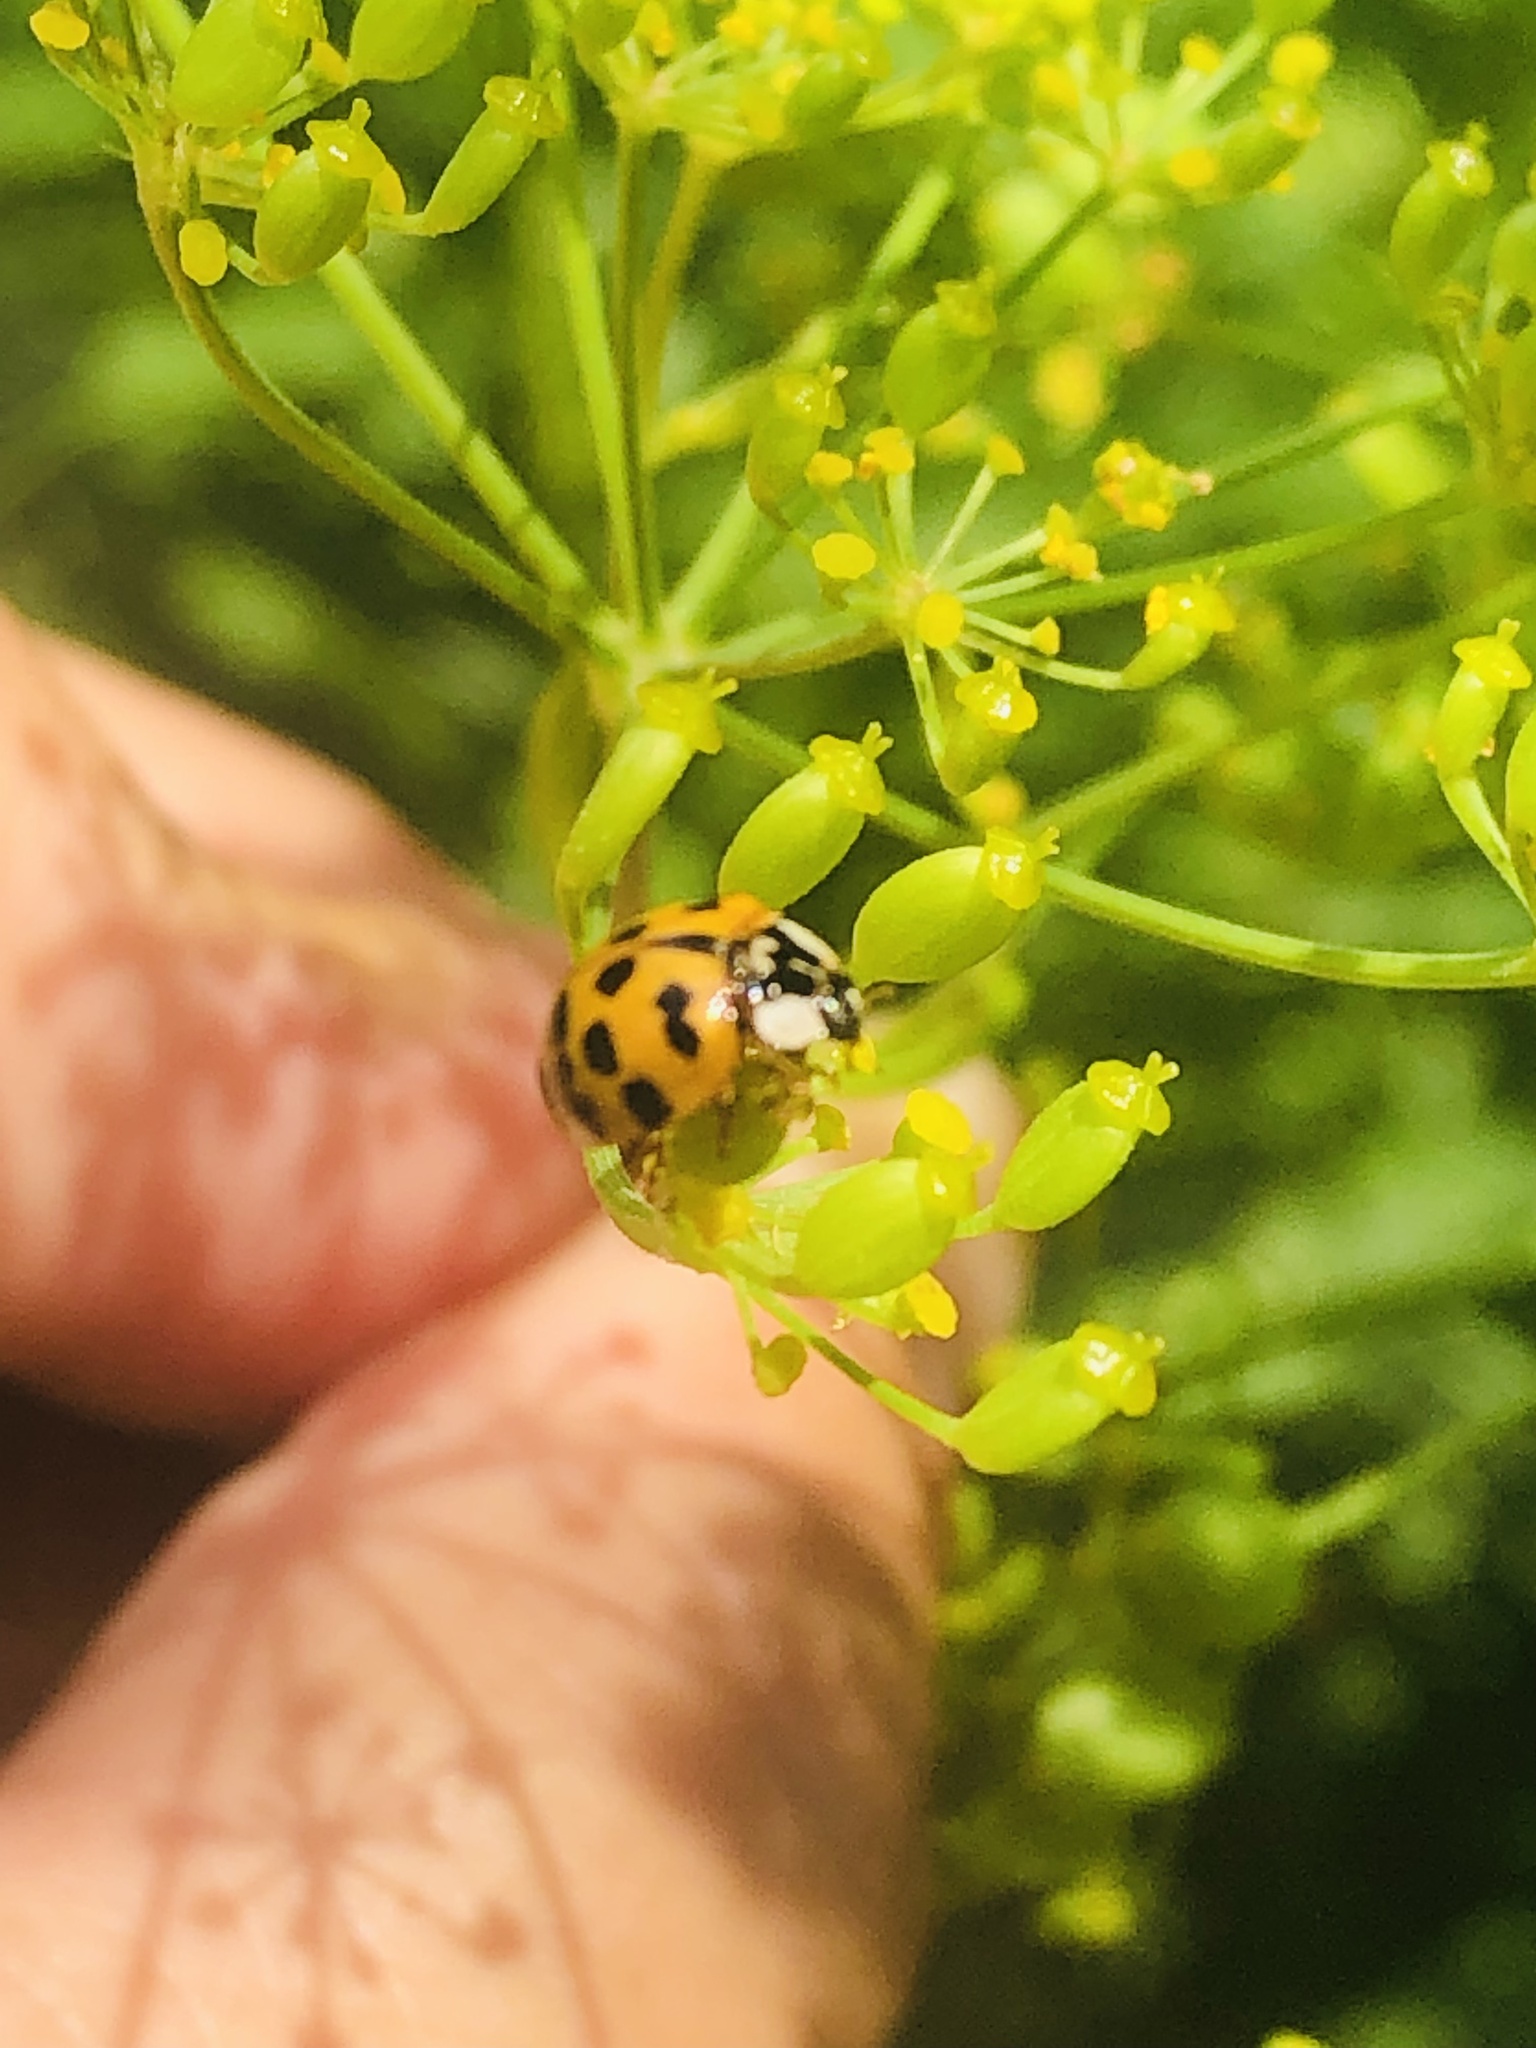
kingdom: Animalia
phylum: Arthropoda
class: Insecta
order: Coleoptera
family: Coccinellidae
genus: Harmonia
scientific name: Harmonia axyridis
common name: Harlequin ladybird
